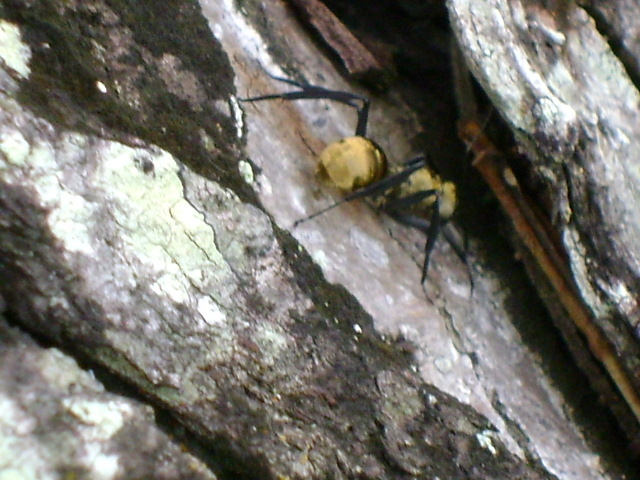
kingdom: Animalia
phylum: Arthropoda
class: Insecta
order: Hymenoptera
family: Formicidae
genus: Camponotus
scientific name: Camponotus sericeiventris
